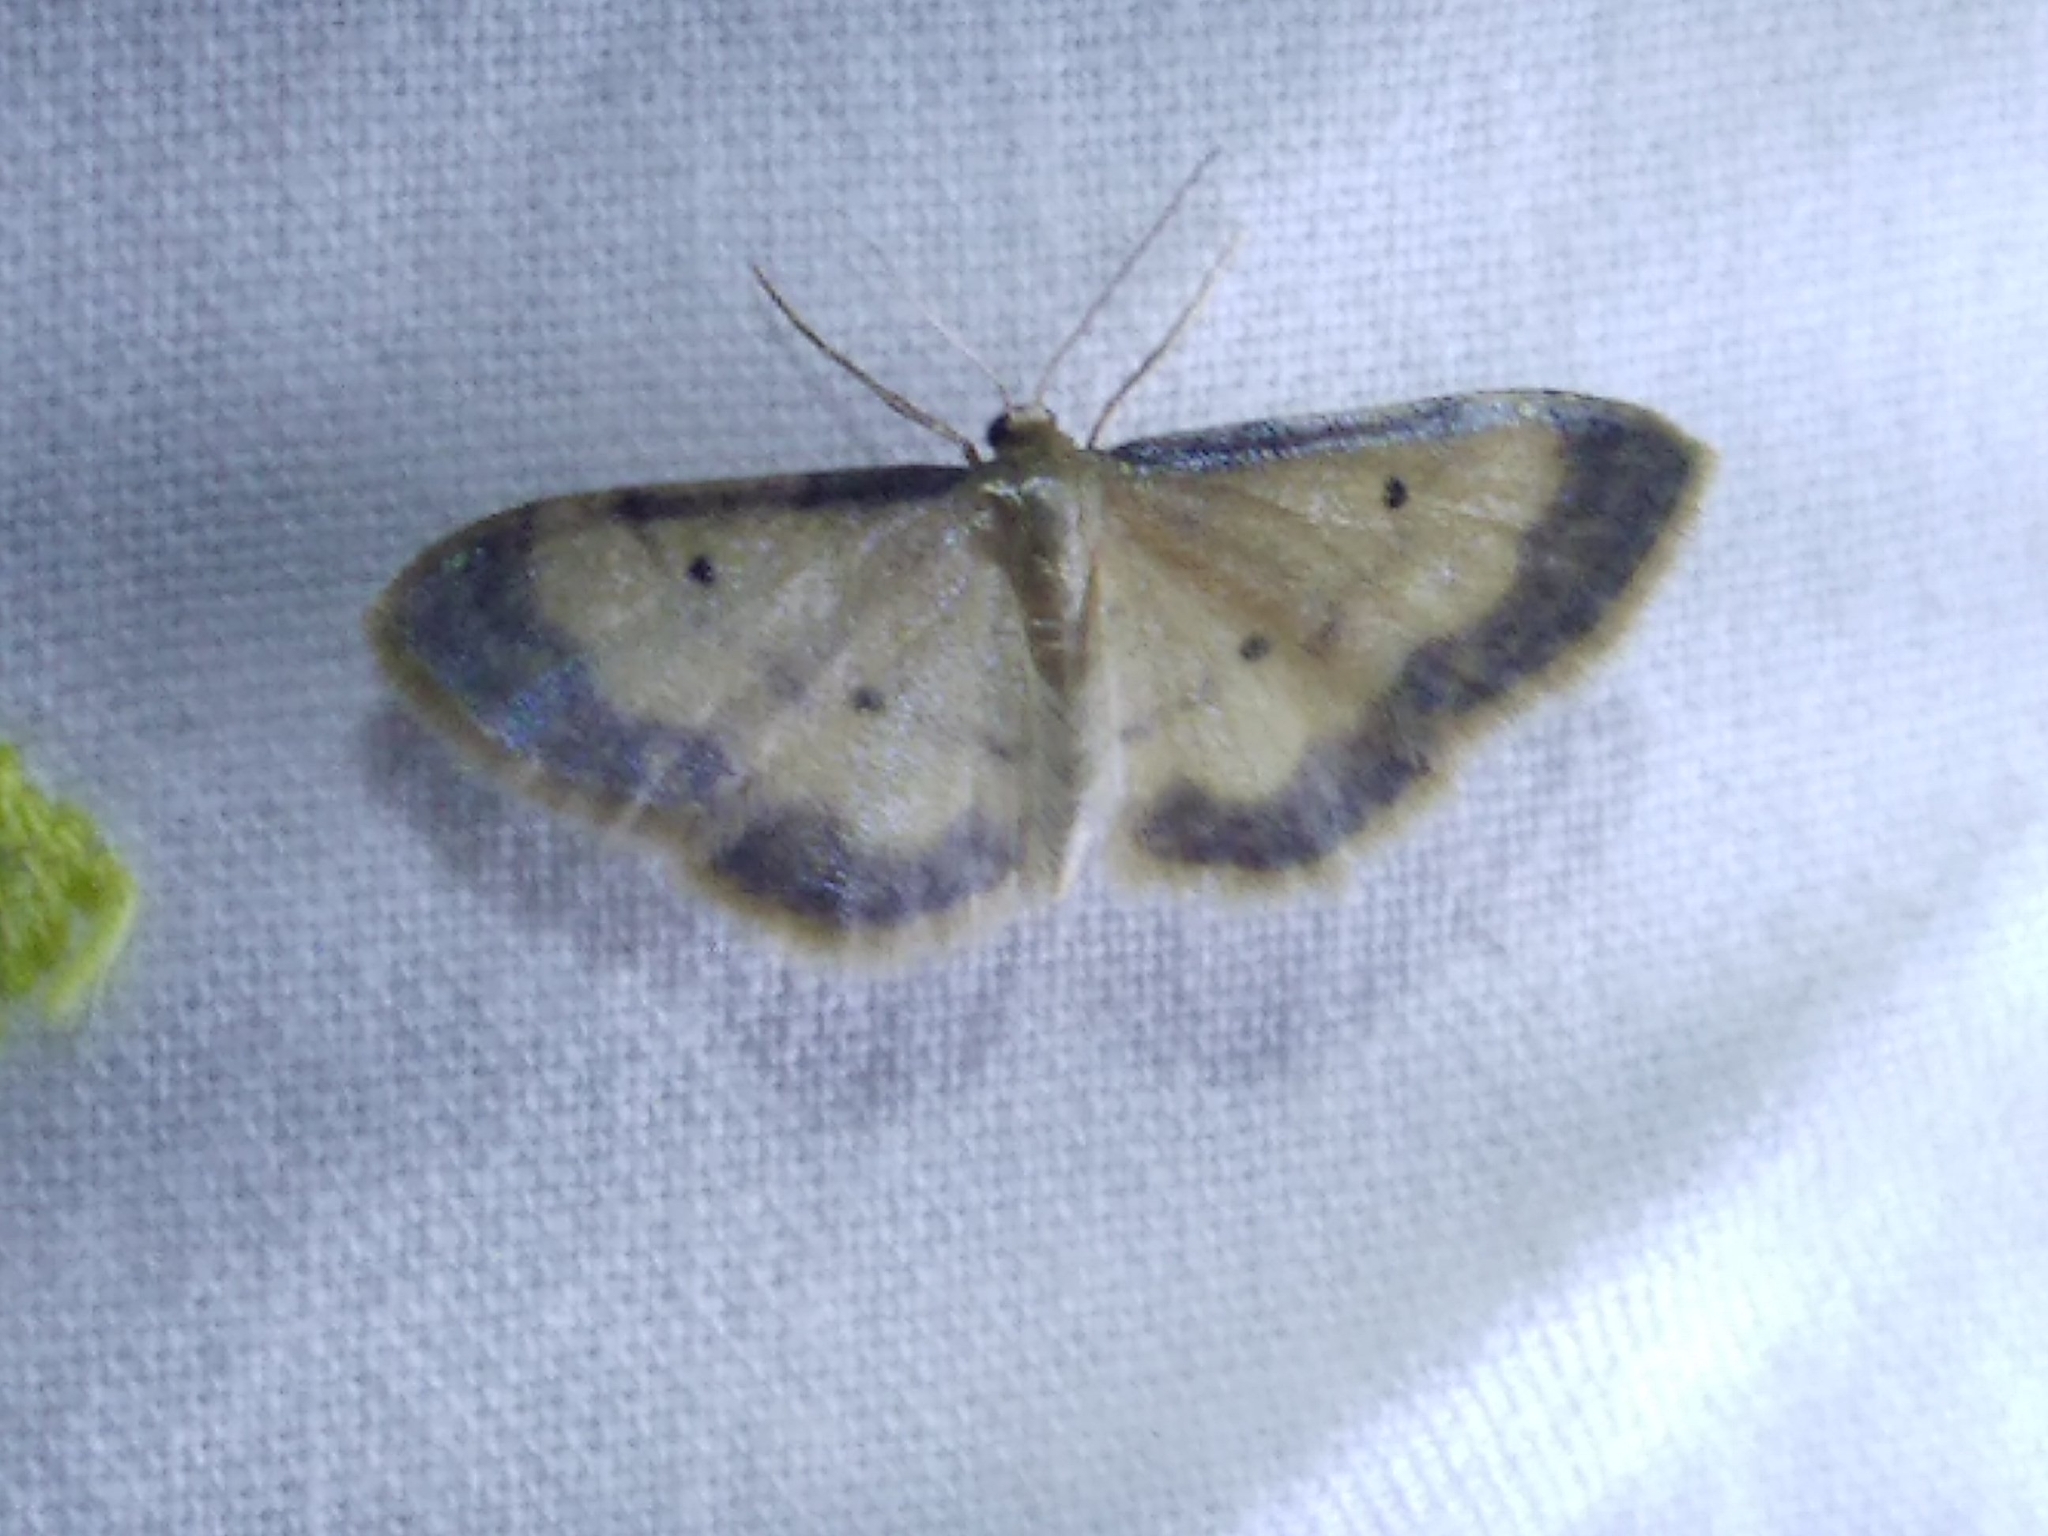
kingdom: Animalia
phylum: Arthropoda
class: Insecta
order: Lepidoptera
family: Geometridae
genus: Idaea
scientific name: Idaea politaria
